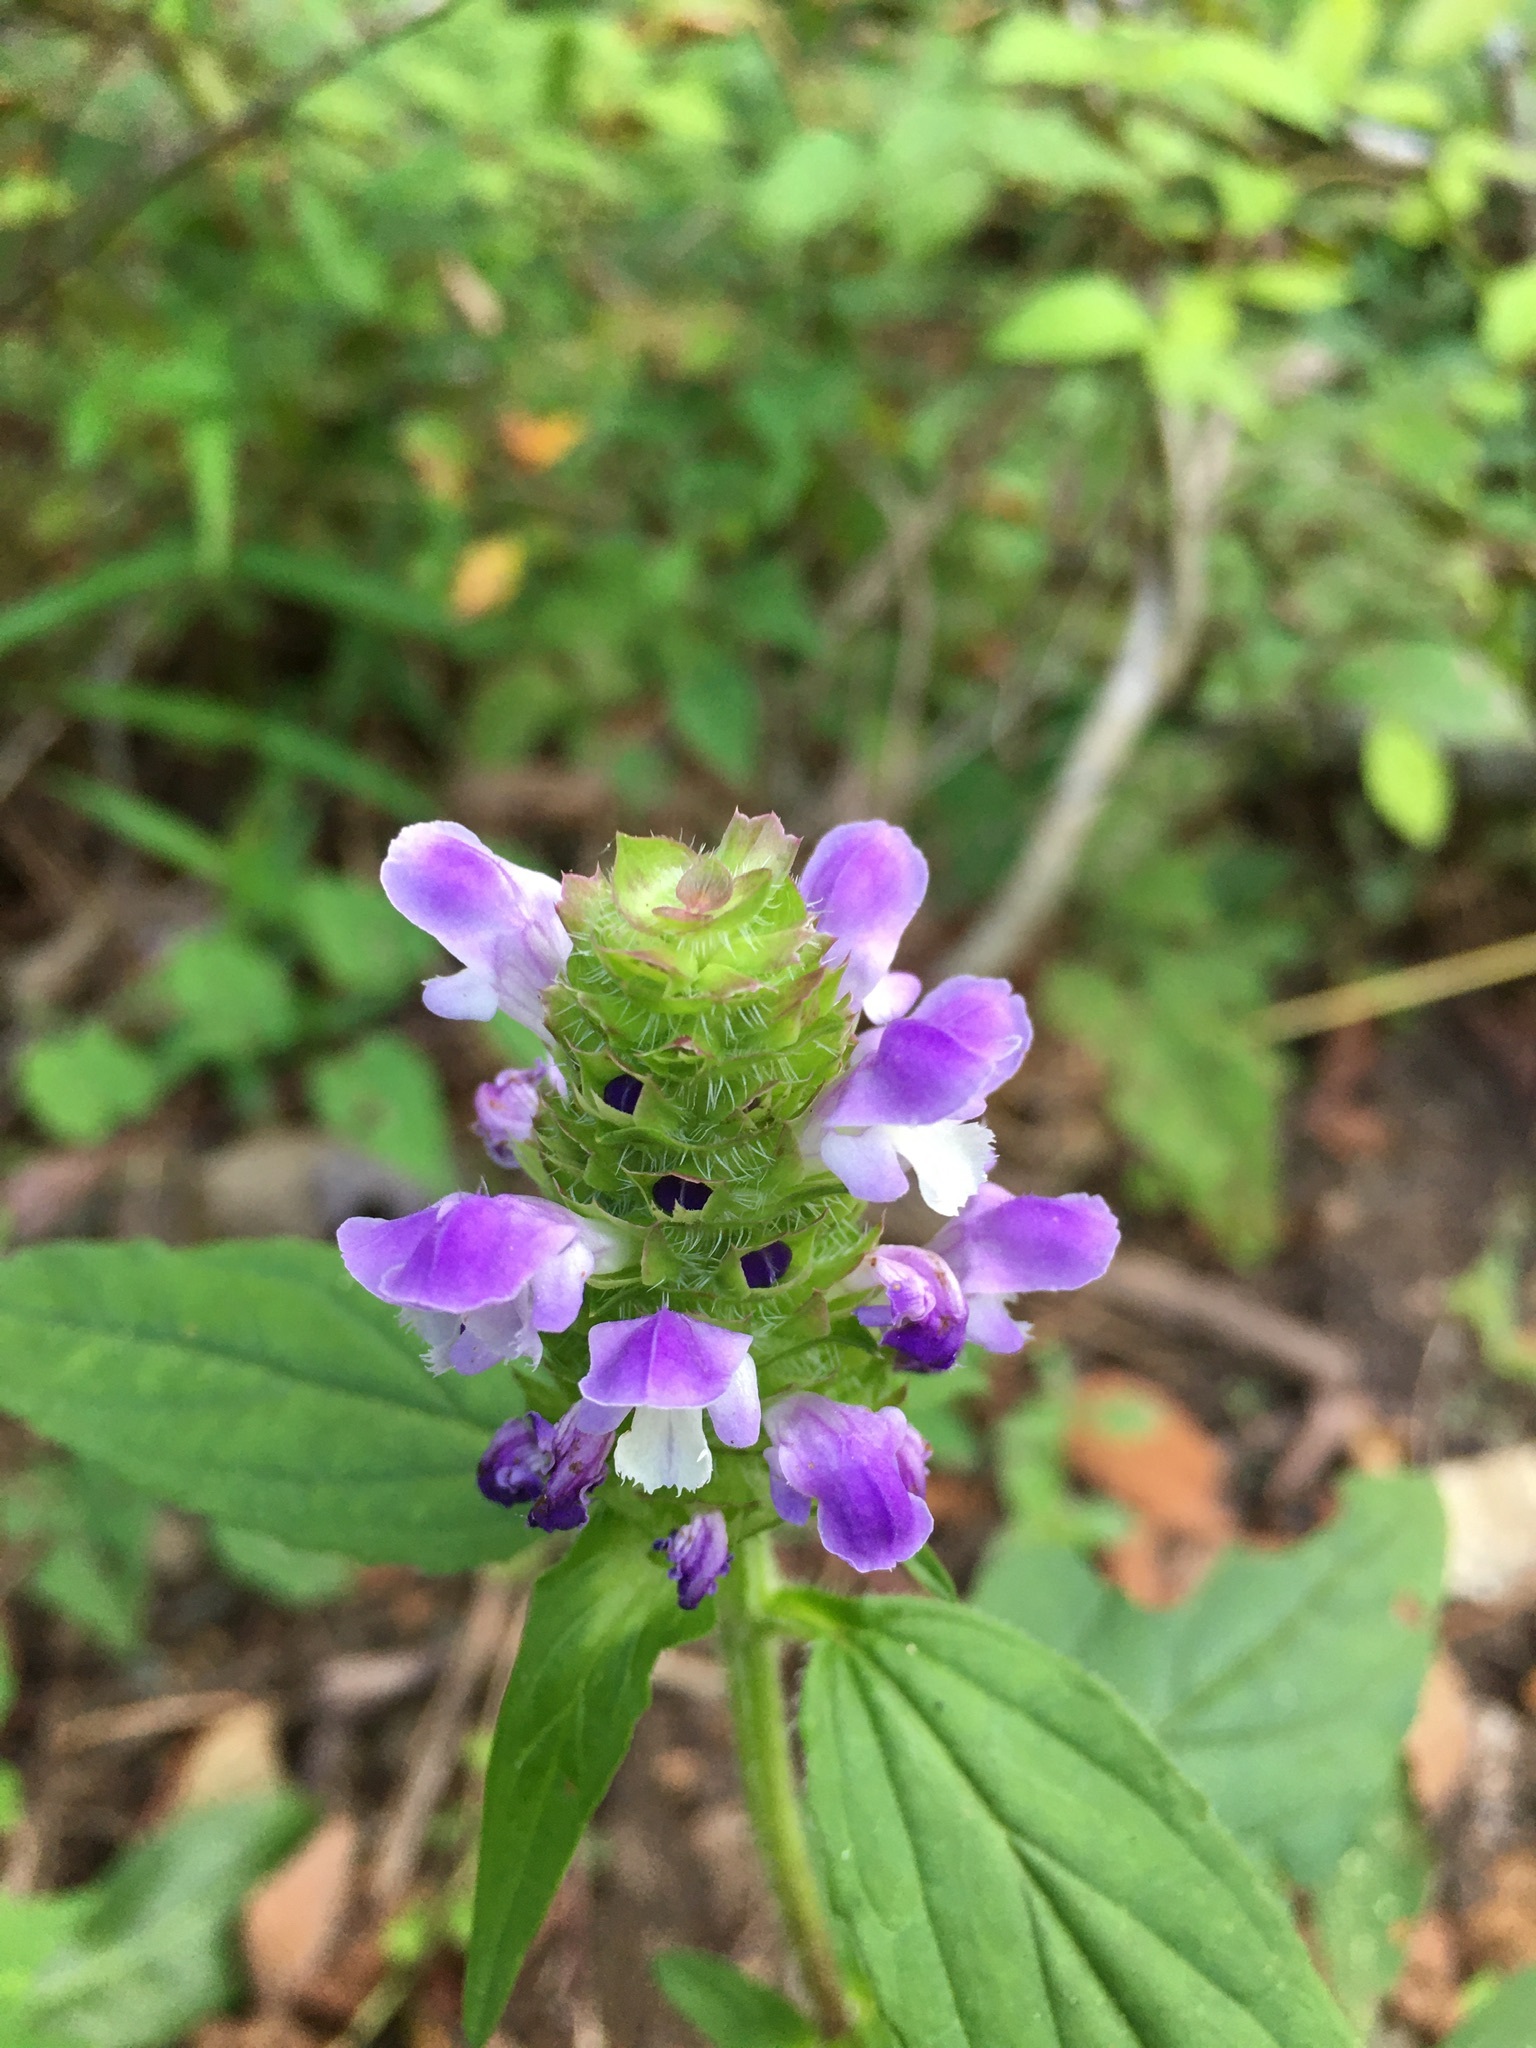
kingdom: Plantae
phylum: Tracheophyta
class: Magnoliopsida
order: Lamiales
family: Lamiaceae
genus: Prunella
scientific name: Prunella vulgaris
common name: Heal-all
